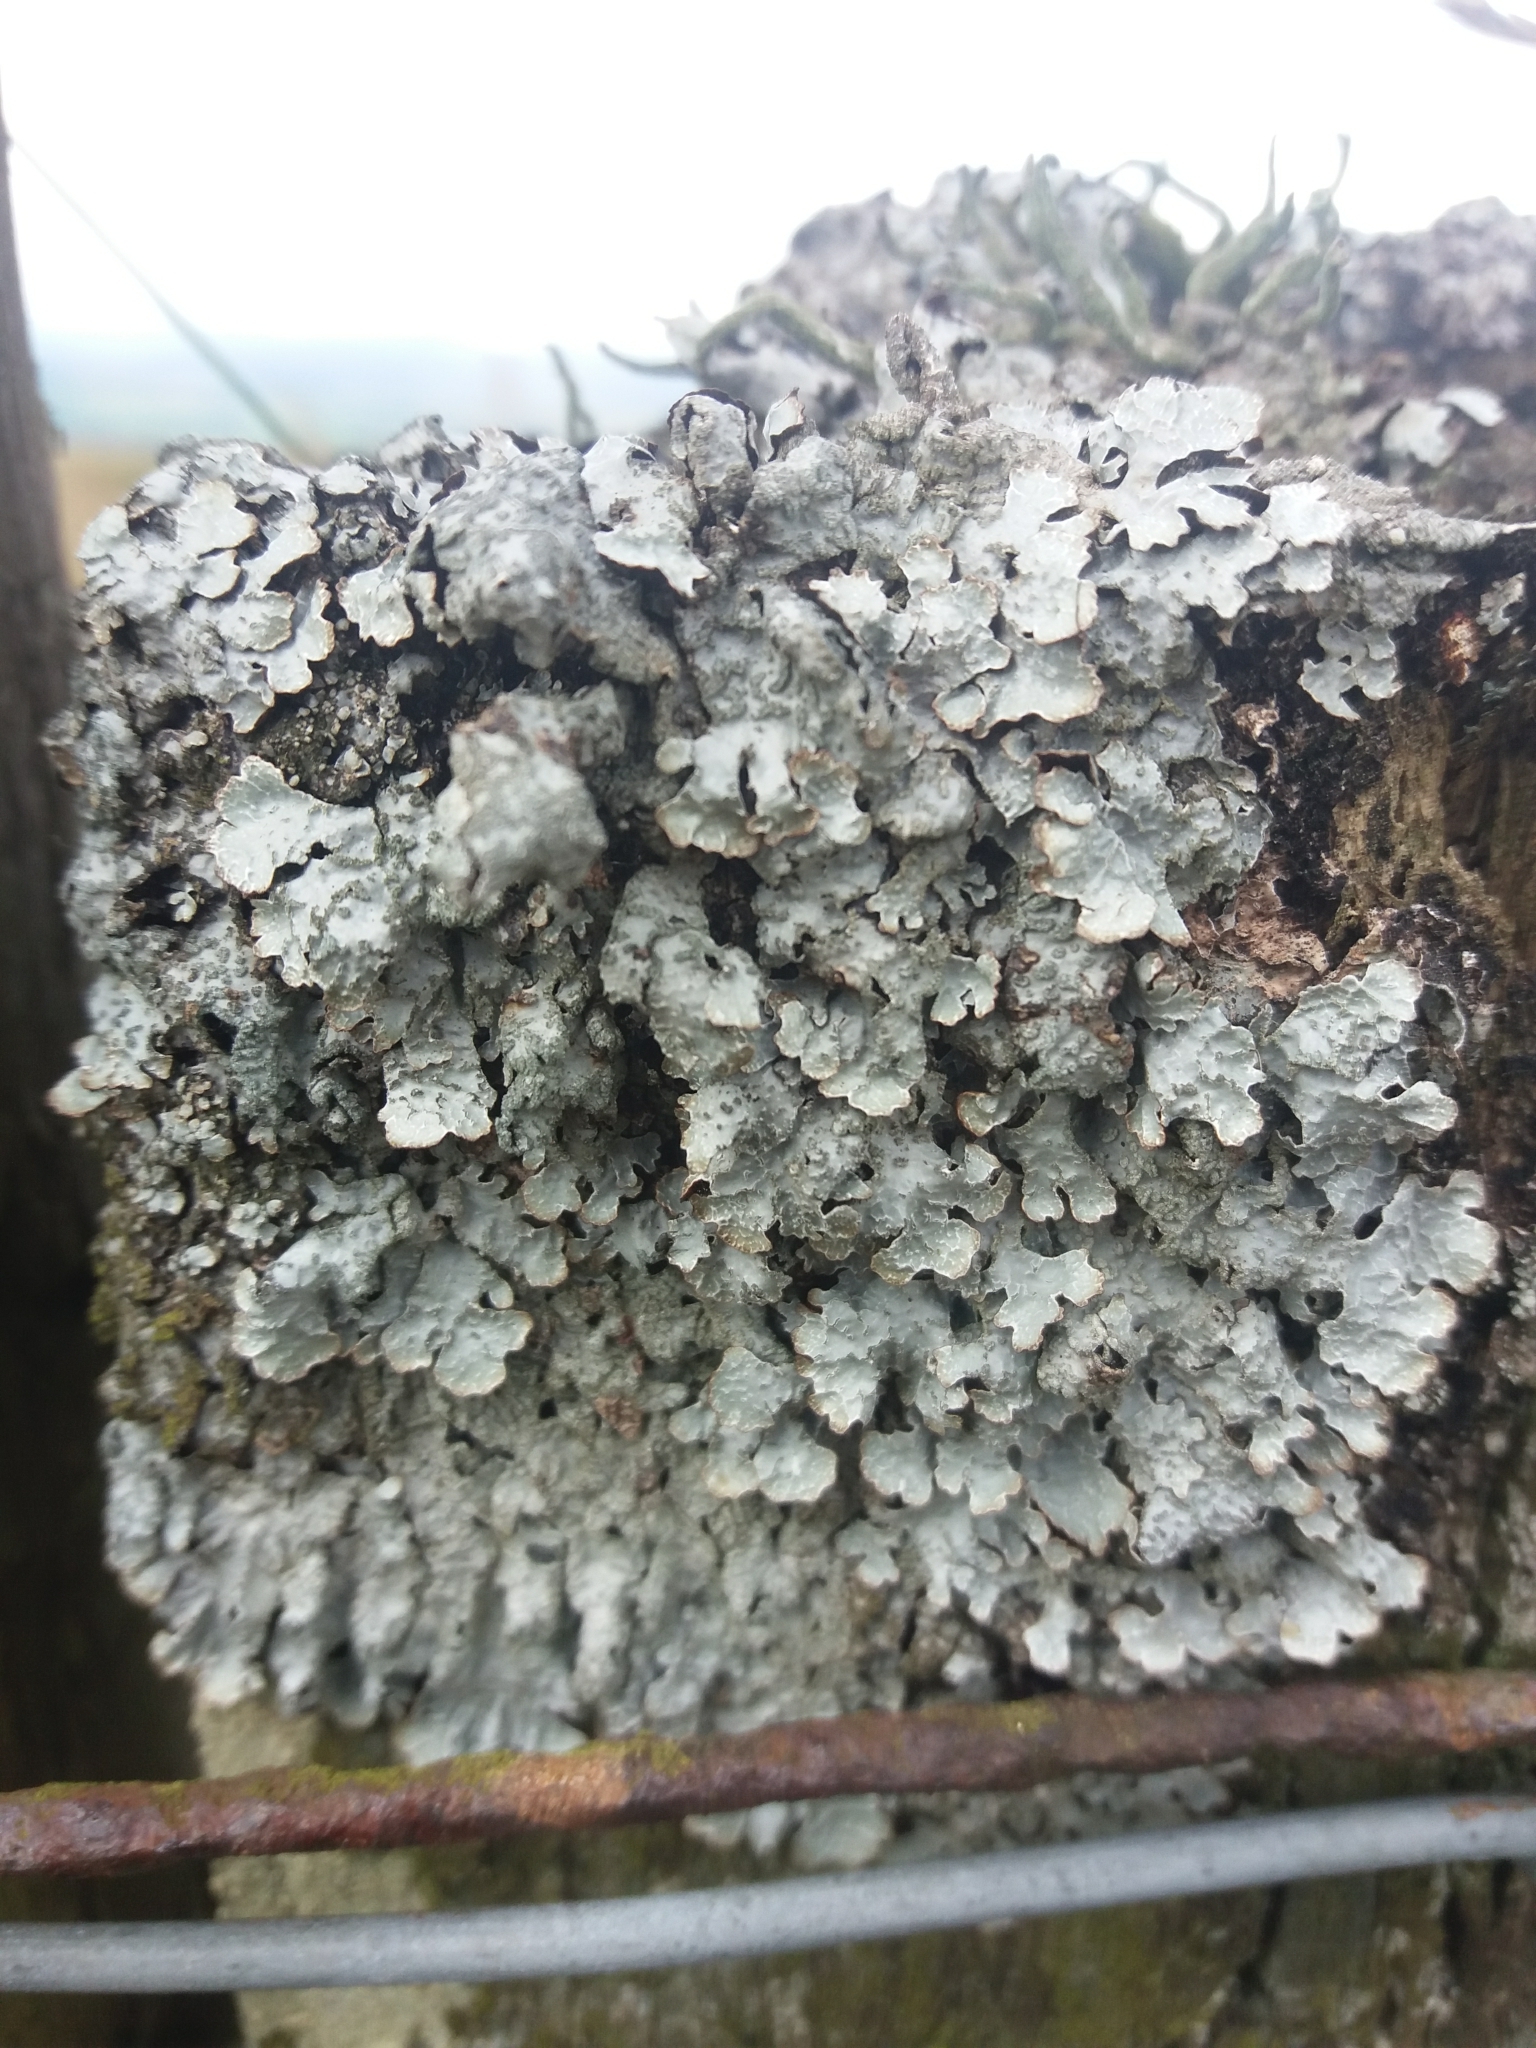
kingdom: Fungi
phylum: Ascomycota
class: Lecanoromycetes
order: Lecanorales
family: Parmeliaceae
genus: Parmelia
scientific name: Parmelia sulcata
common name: Netted shield lichen
